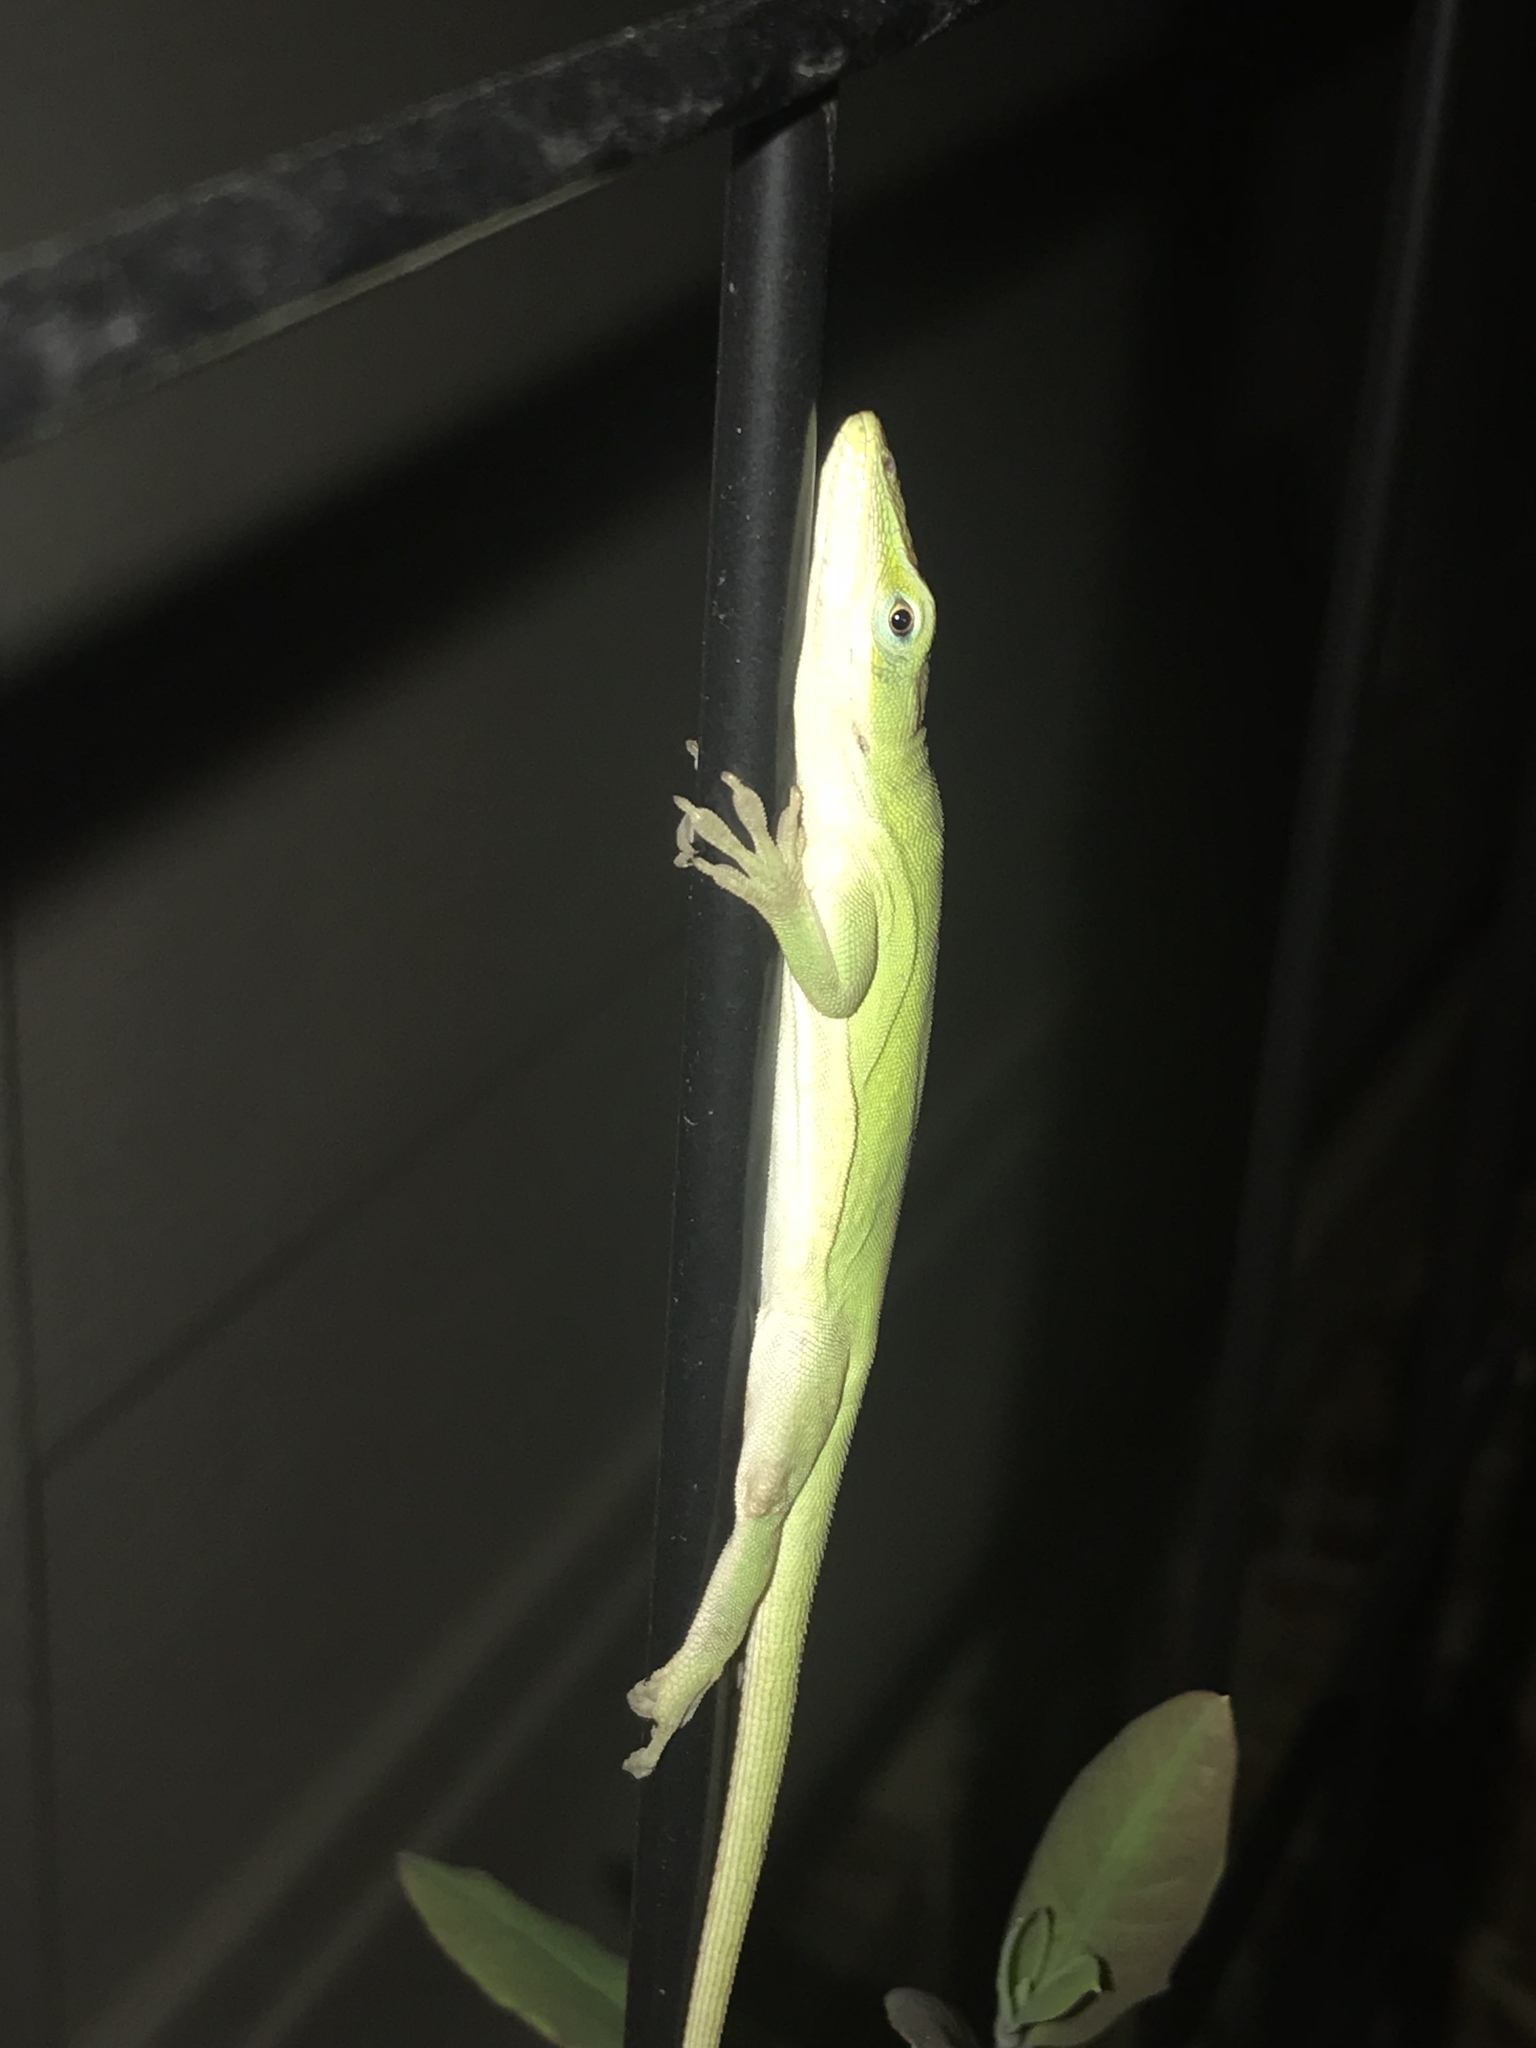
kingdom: Animalia
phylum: Chordata
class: Squamata
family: Dactyloidae
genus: Anolis
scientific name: Anolis carolinensis
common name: Green anole
